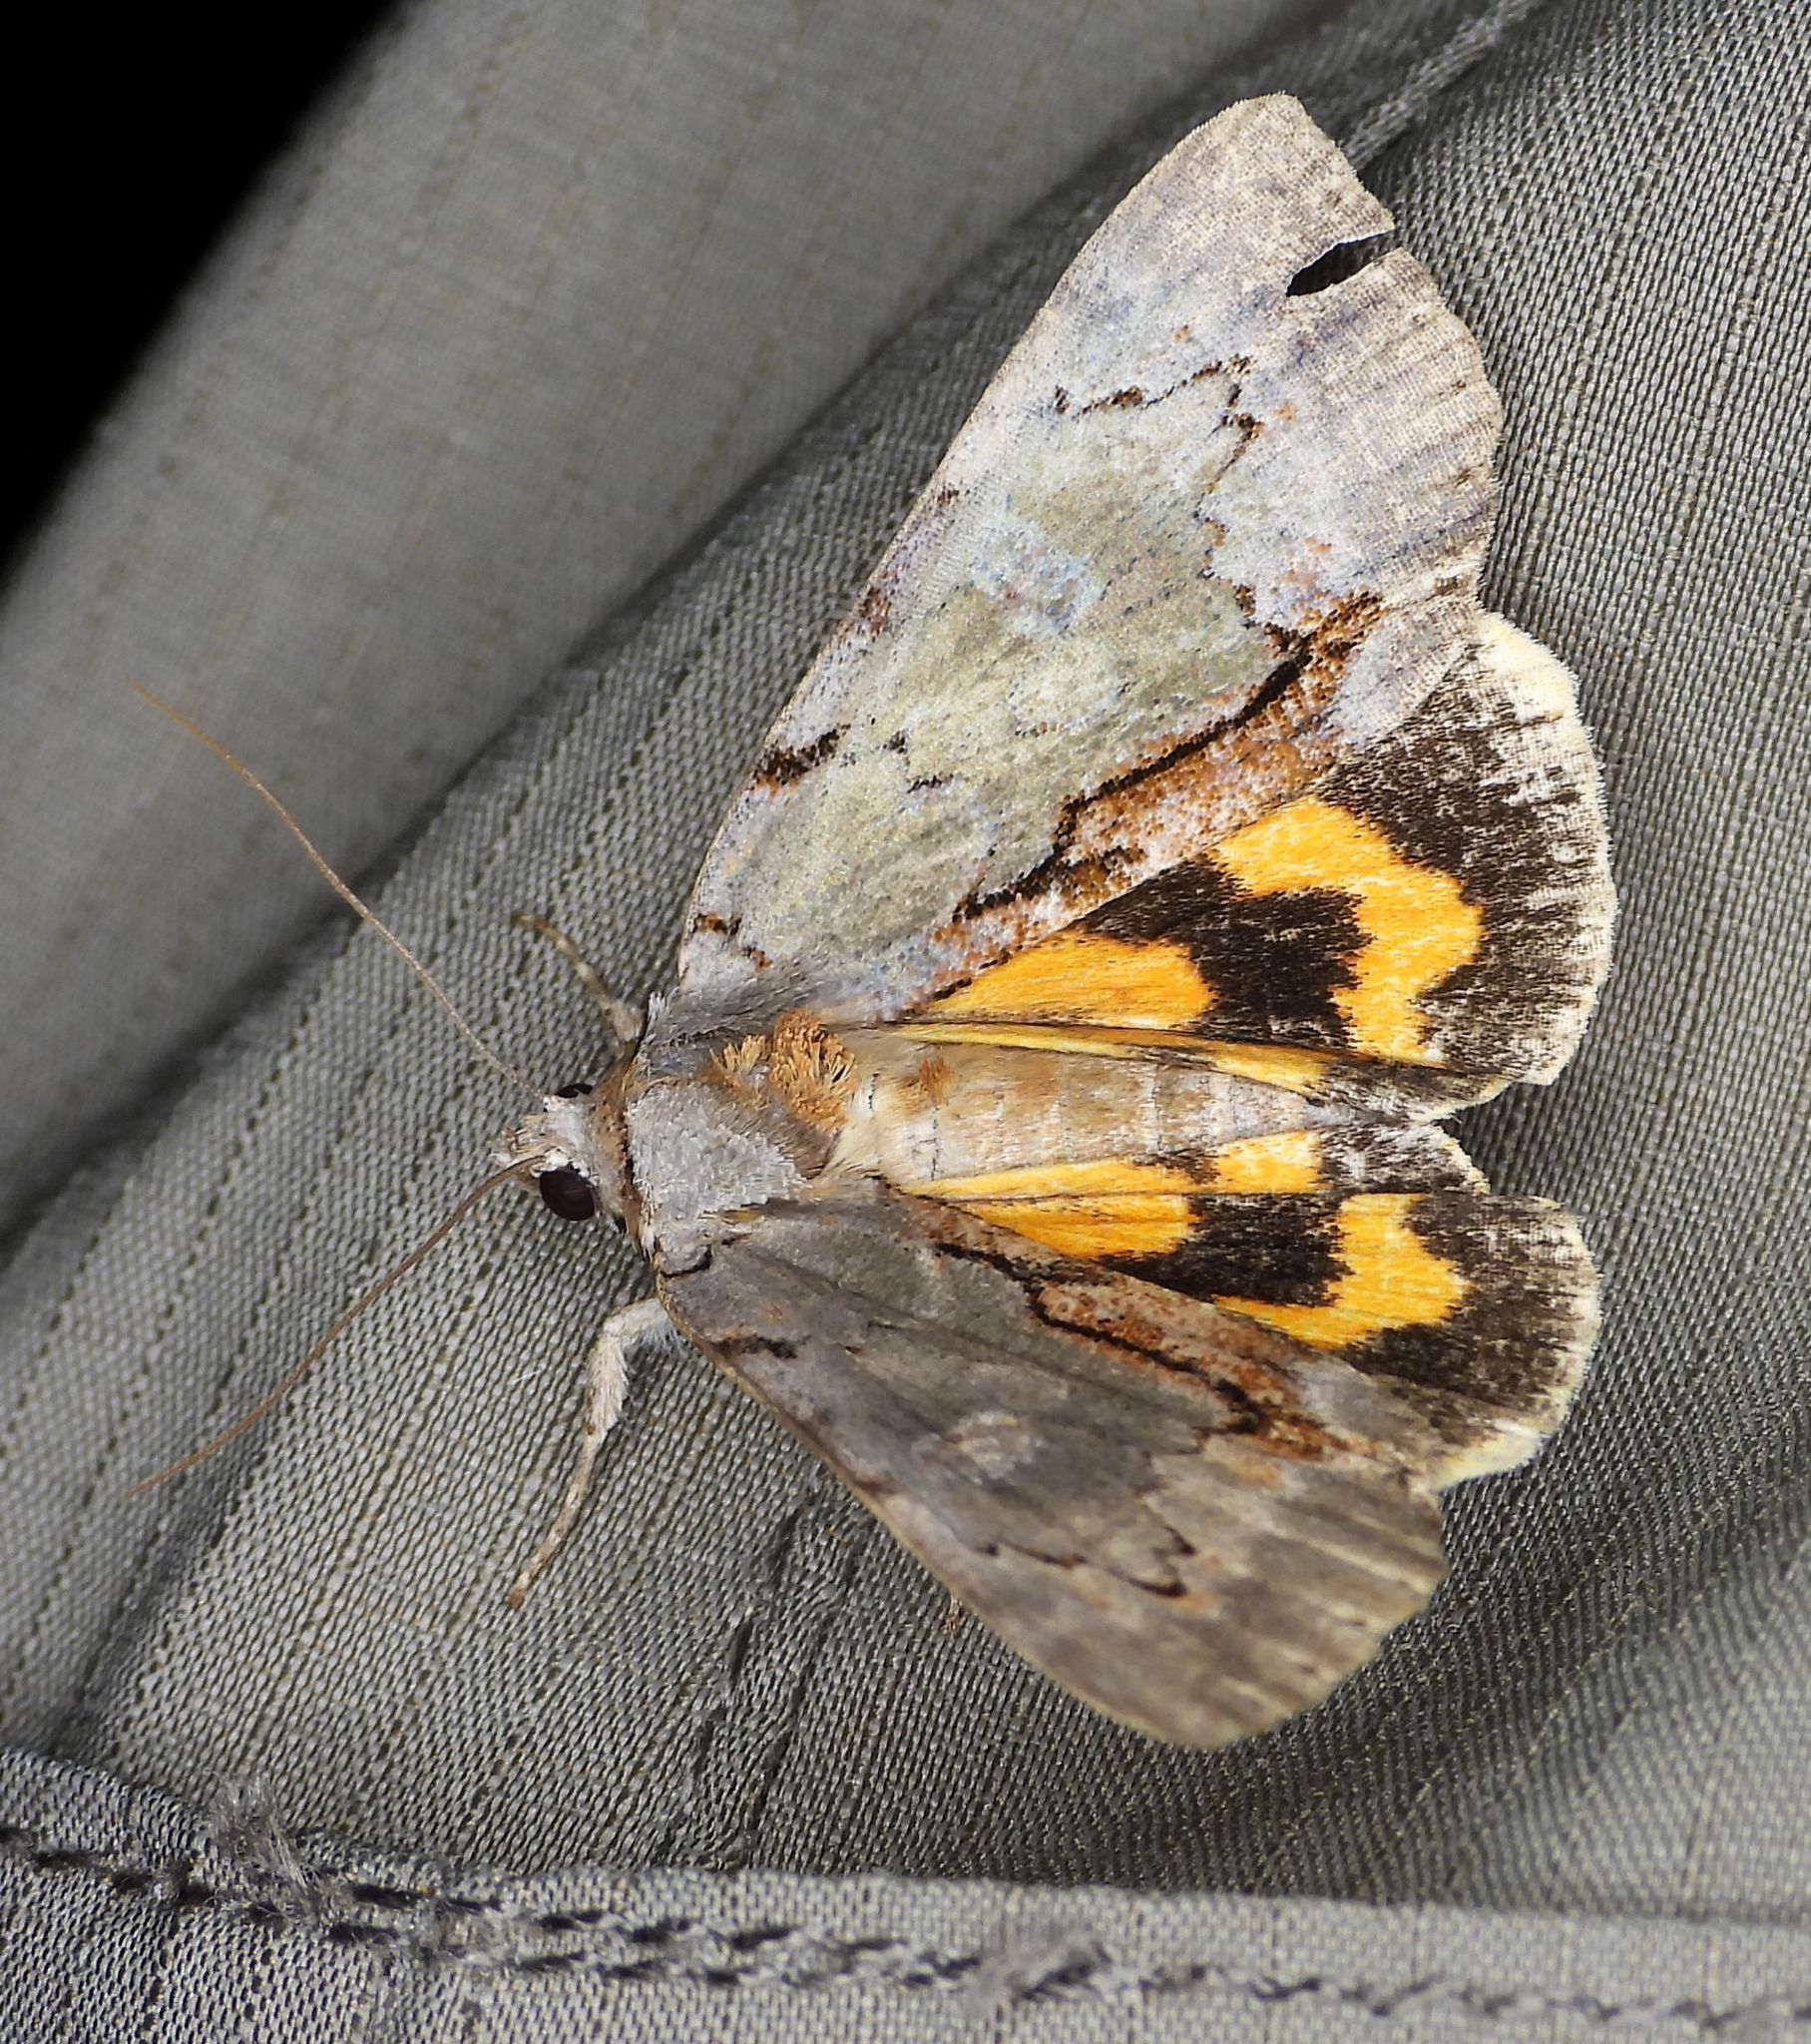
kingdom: Animalia
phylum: Arthropoda
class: Insecta
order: Lepidoptera
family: Erebidae
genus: Catocala
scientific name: Catocala grynea
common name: Woody underwing
